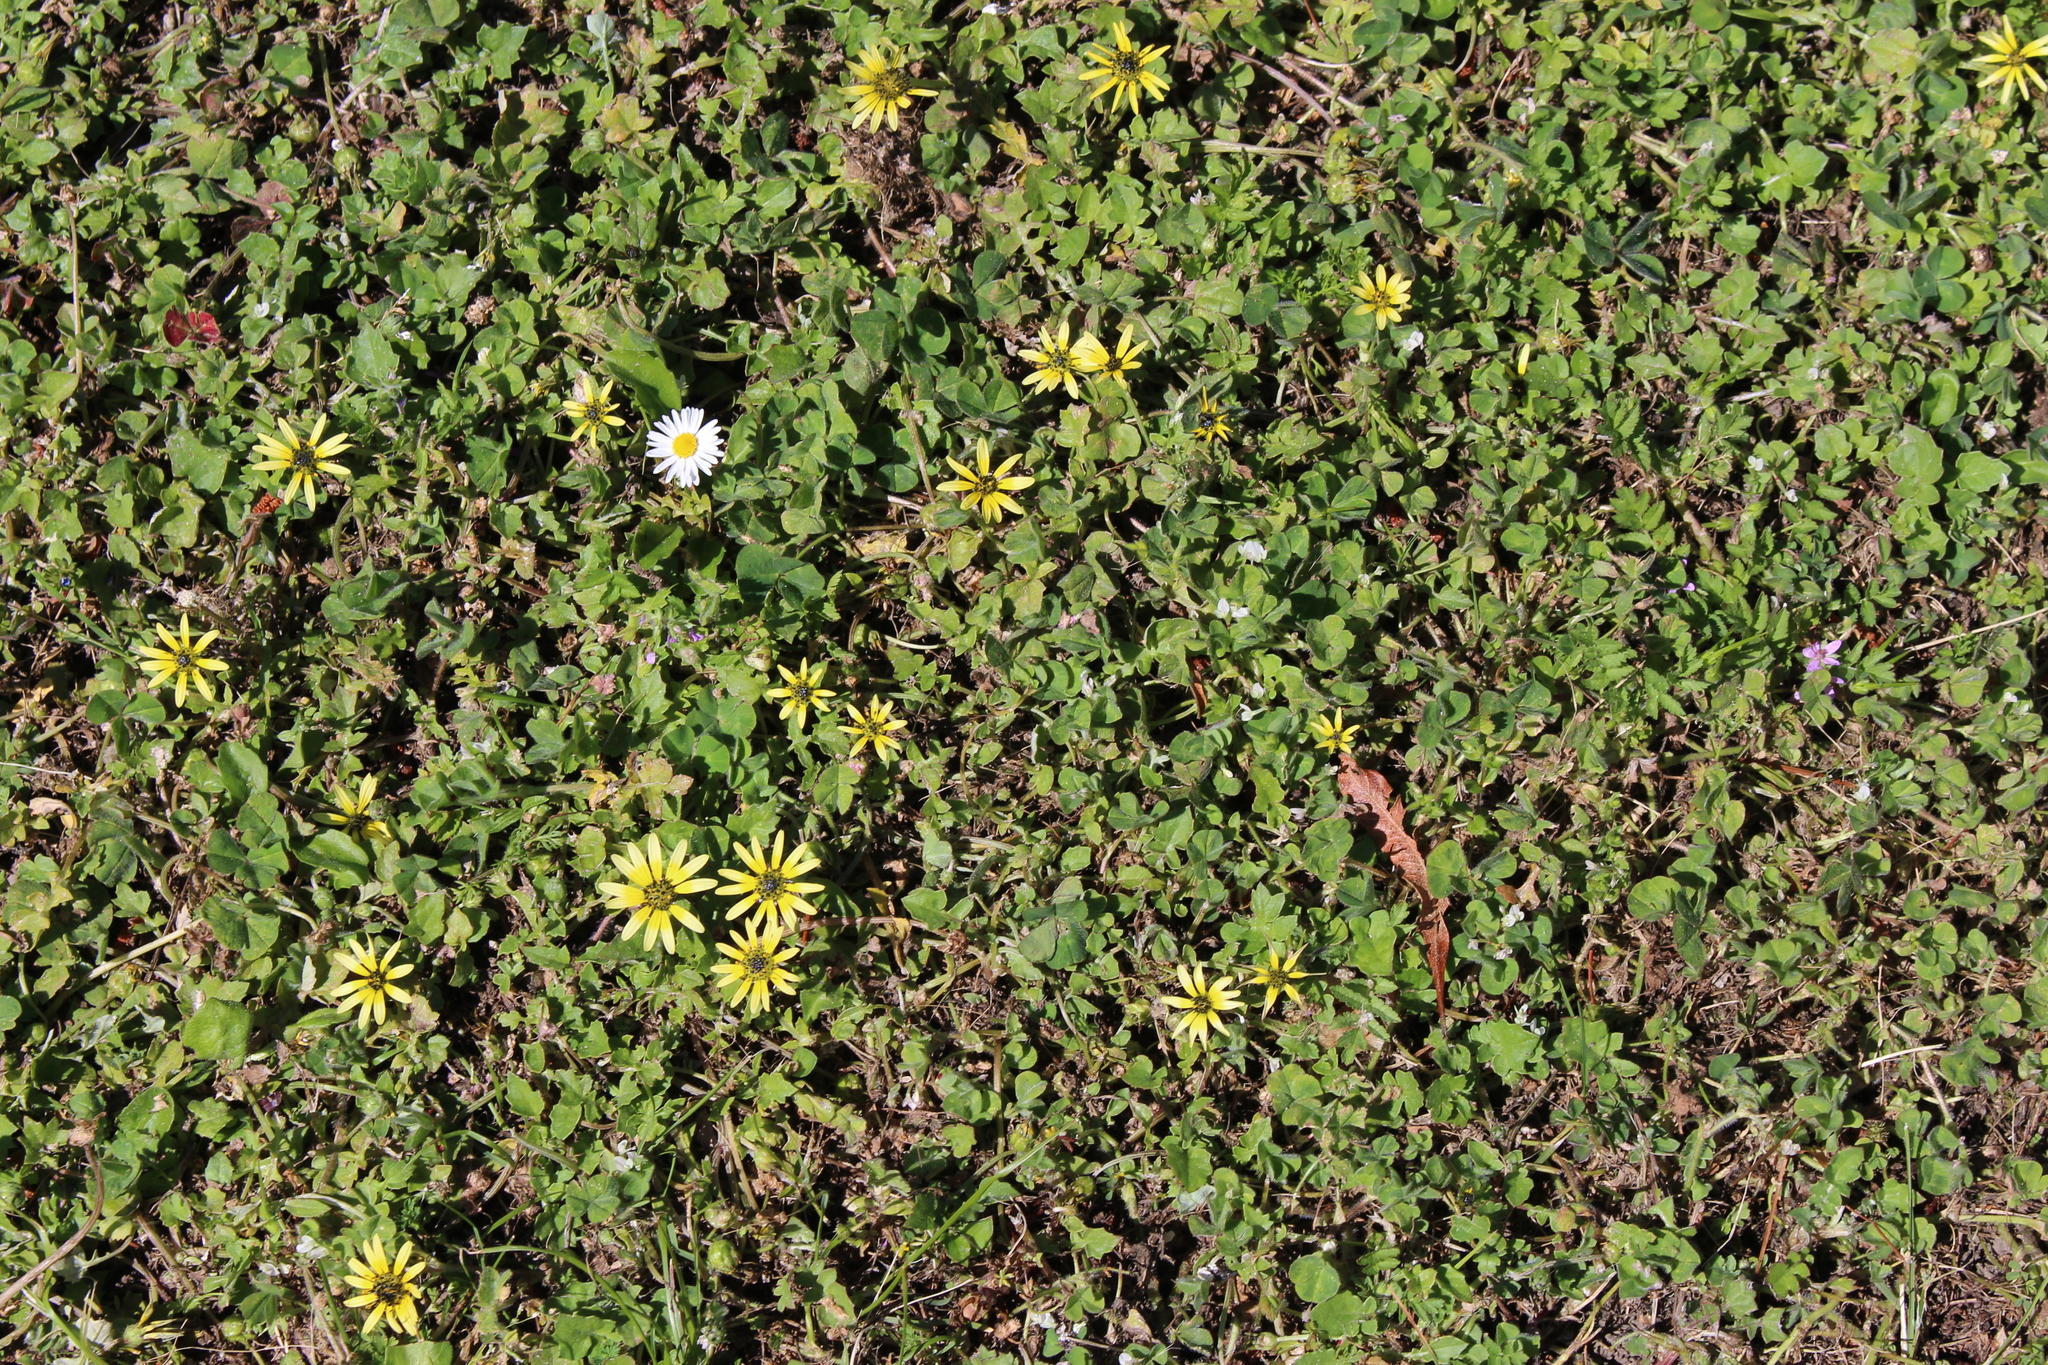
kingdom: Plantae
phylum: Tracheophyta
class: Magnoliopsida
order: Asterales
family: Asteraceae
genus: Arctotheca
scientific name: Arctotheca calendula
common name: Capeweed
